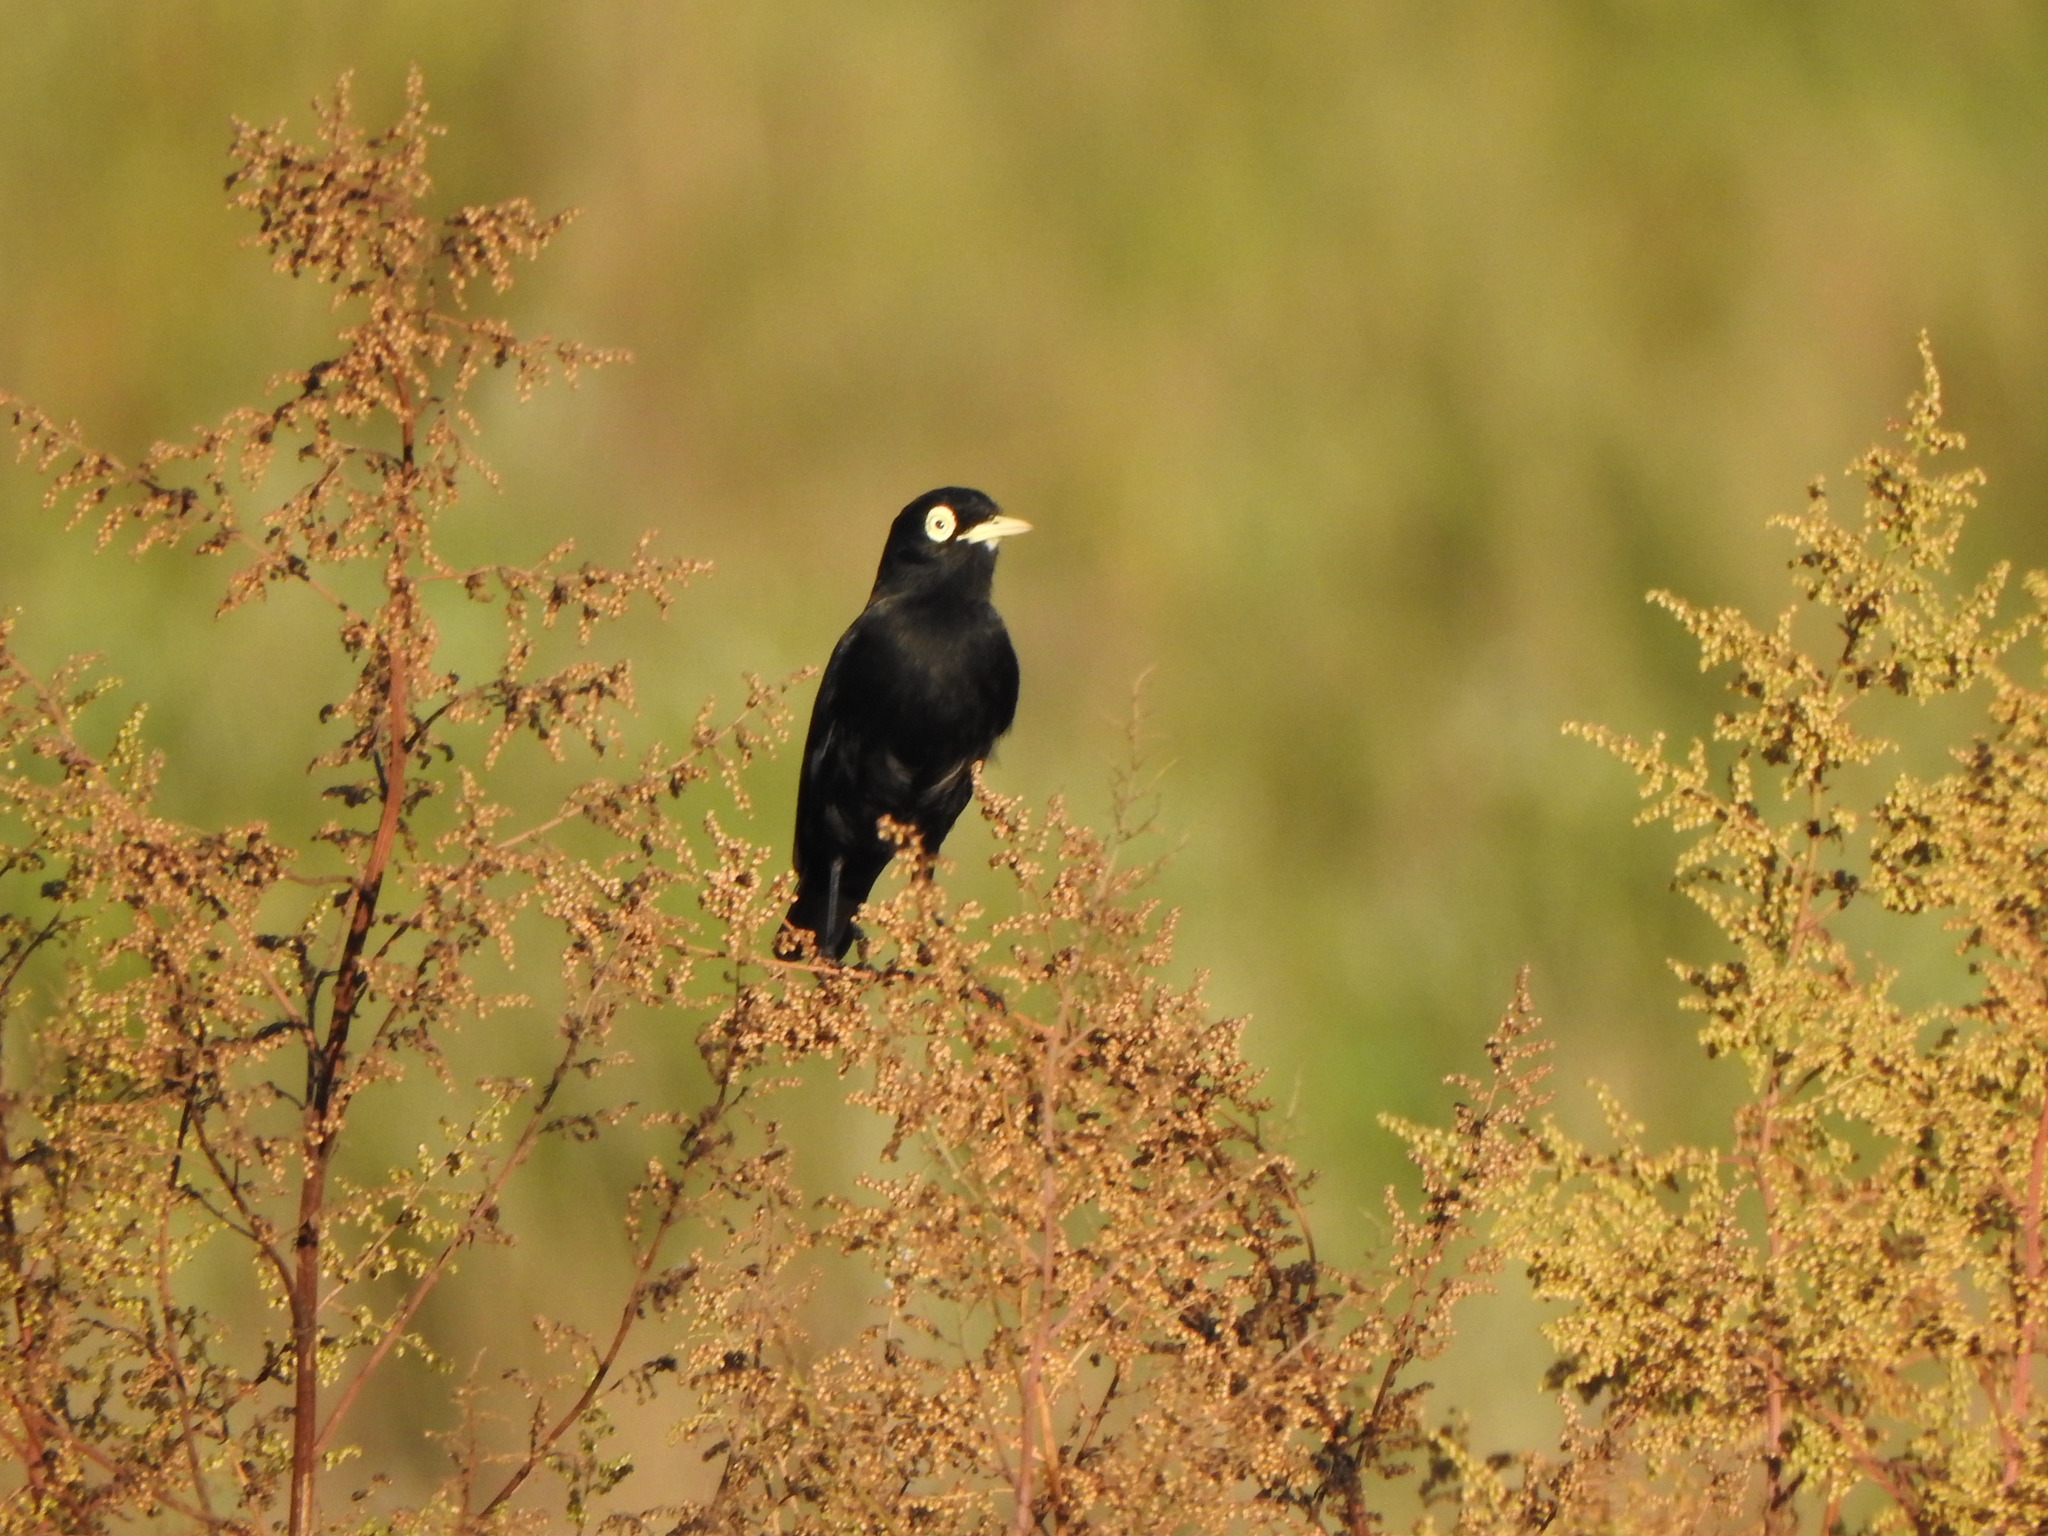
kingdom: Animalia
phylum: Chordata
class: Aves
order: Passeriformes
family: Tyrannidae
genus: Hymenops
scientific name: Hymenops perspicillatus
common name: Spectacled tyrant
